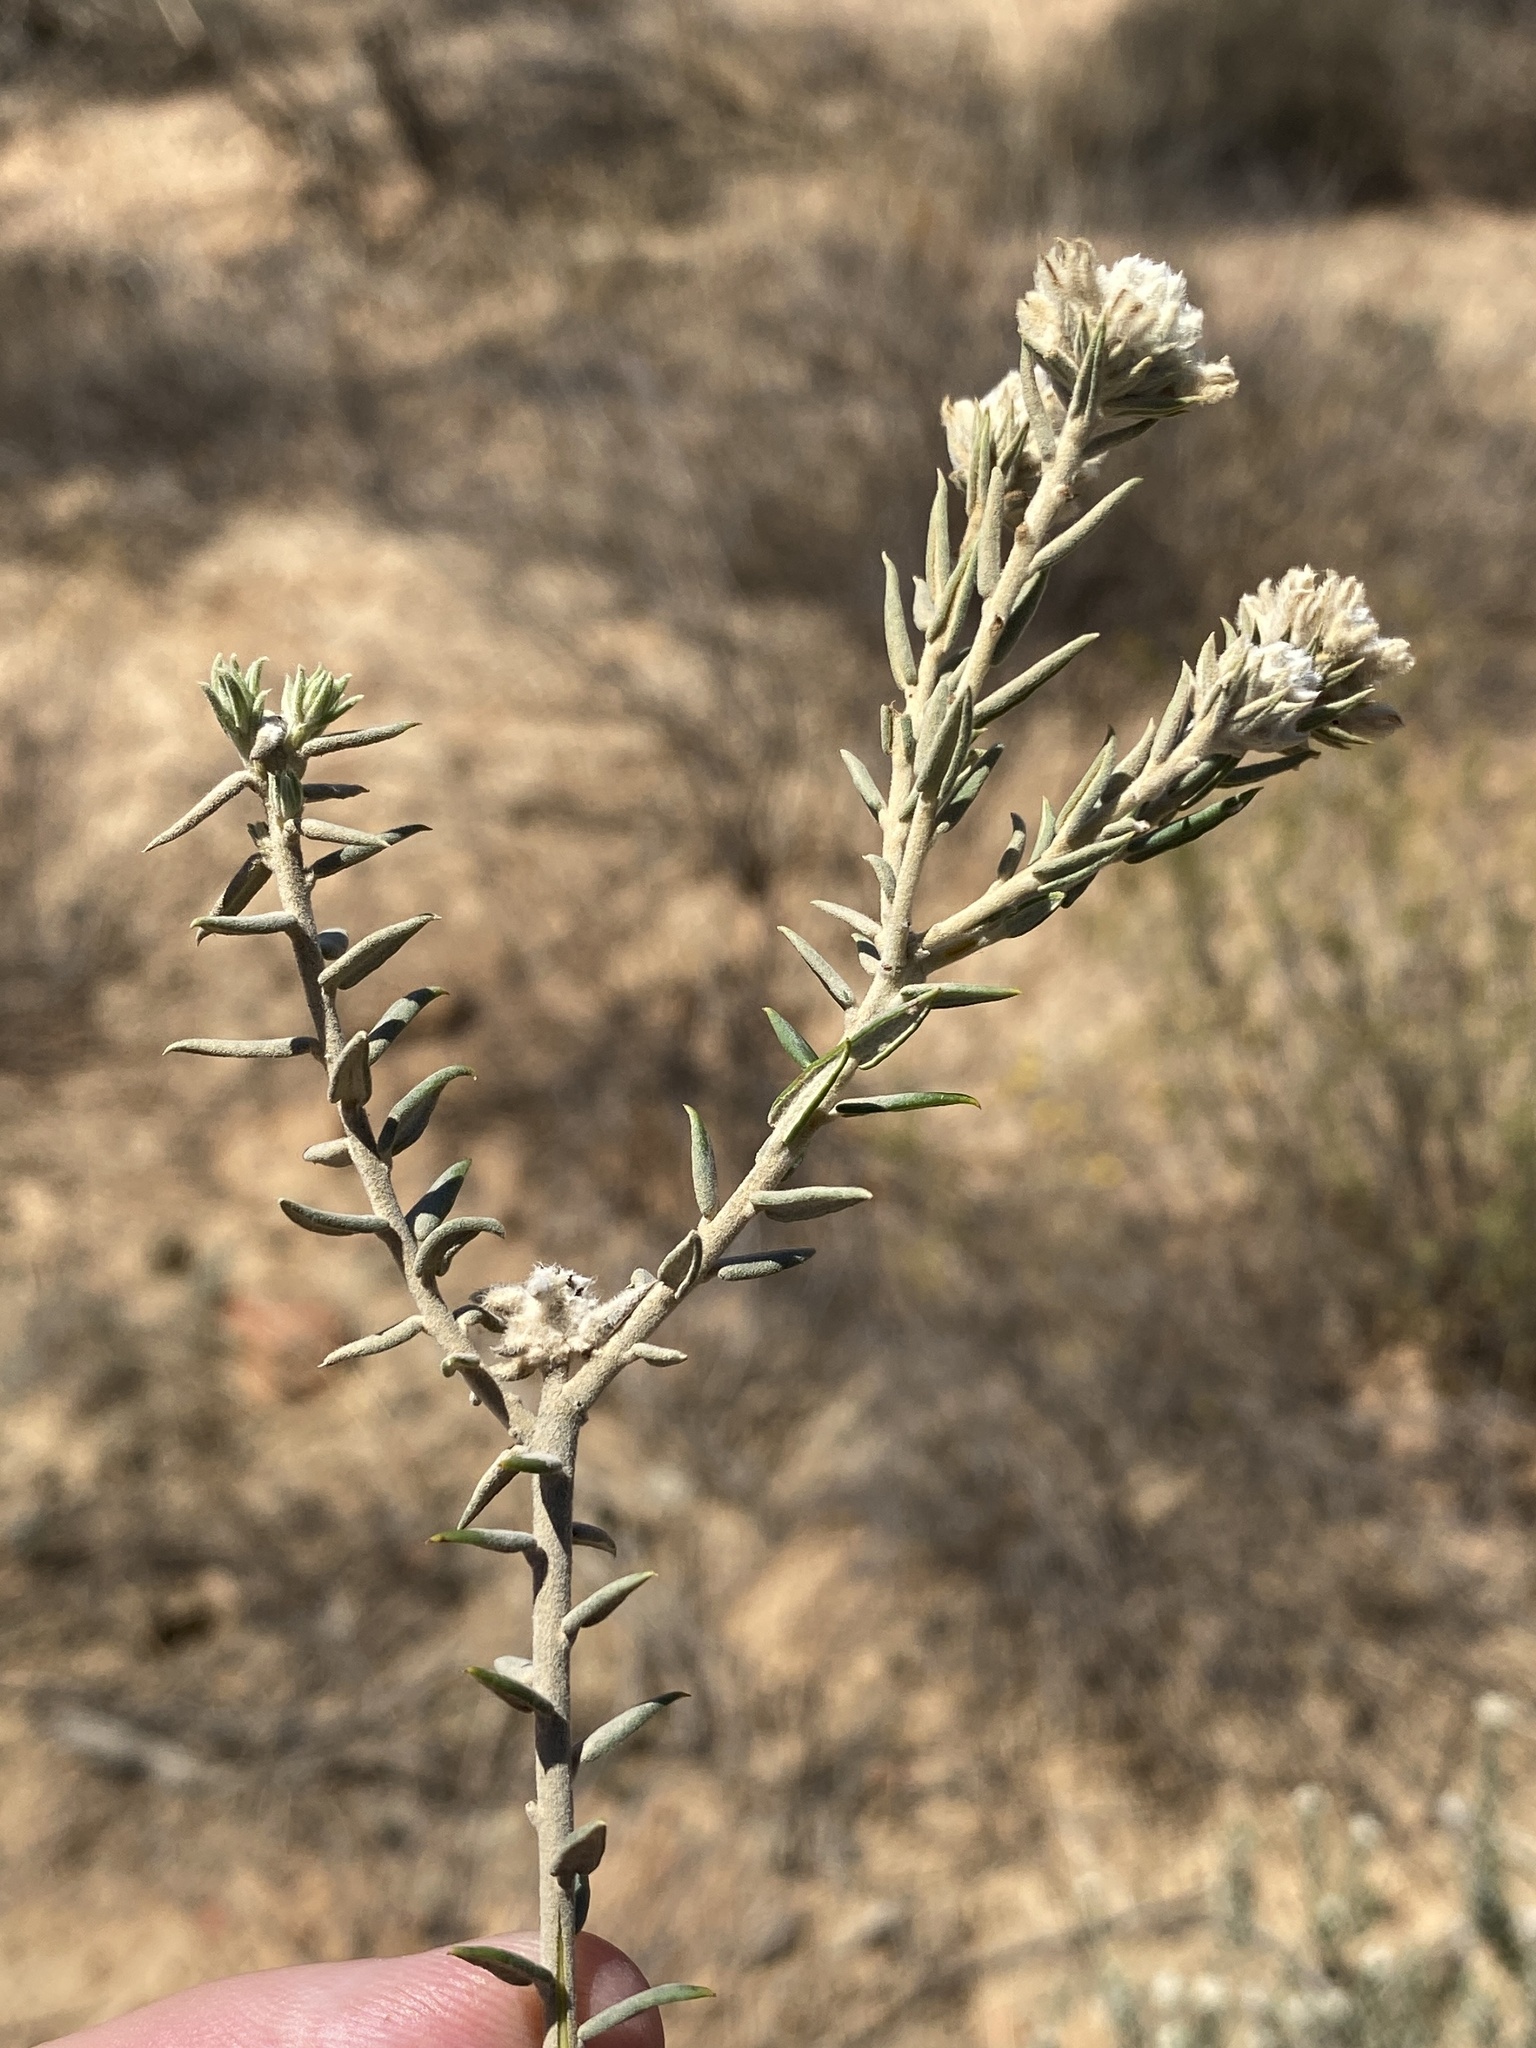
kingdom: Plantae
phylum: Tracheophyta
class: Magnoliopsida
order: Rosales
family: Rhamnaceae
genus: Phylica
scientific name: Phylica spicata
